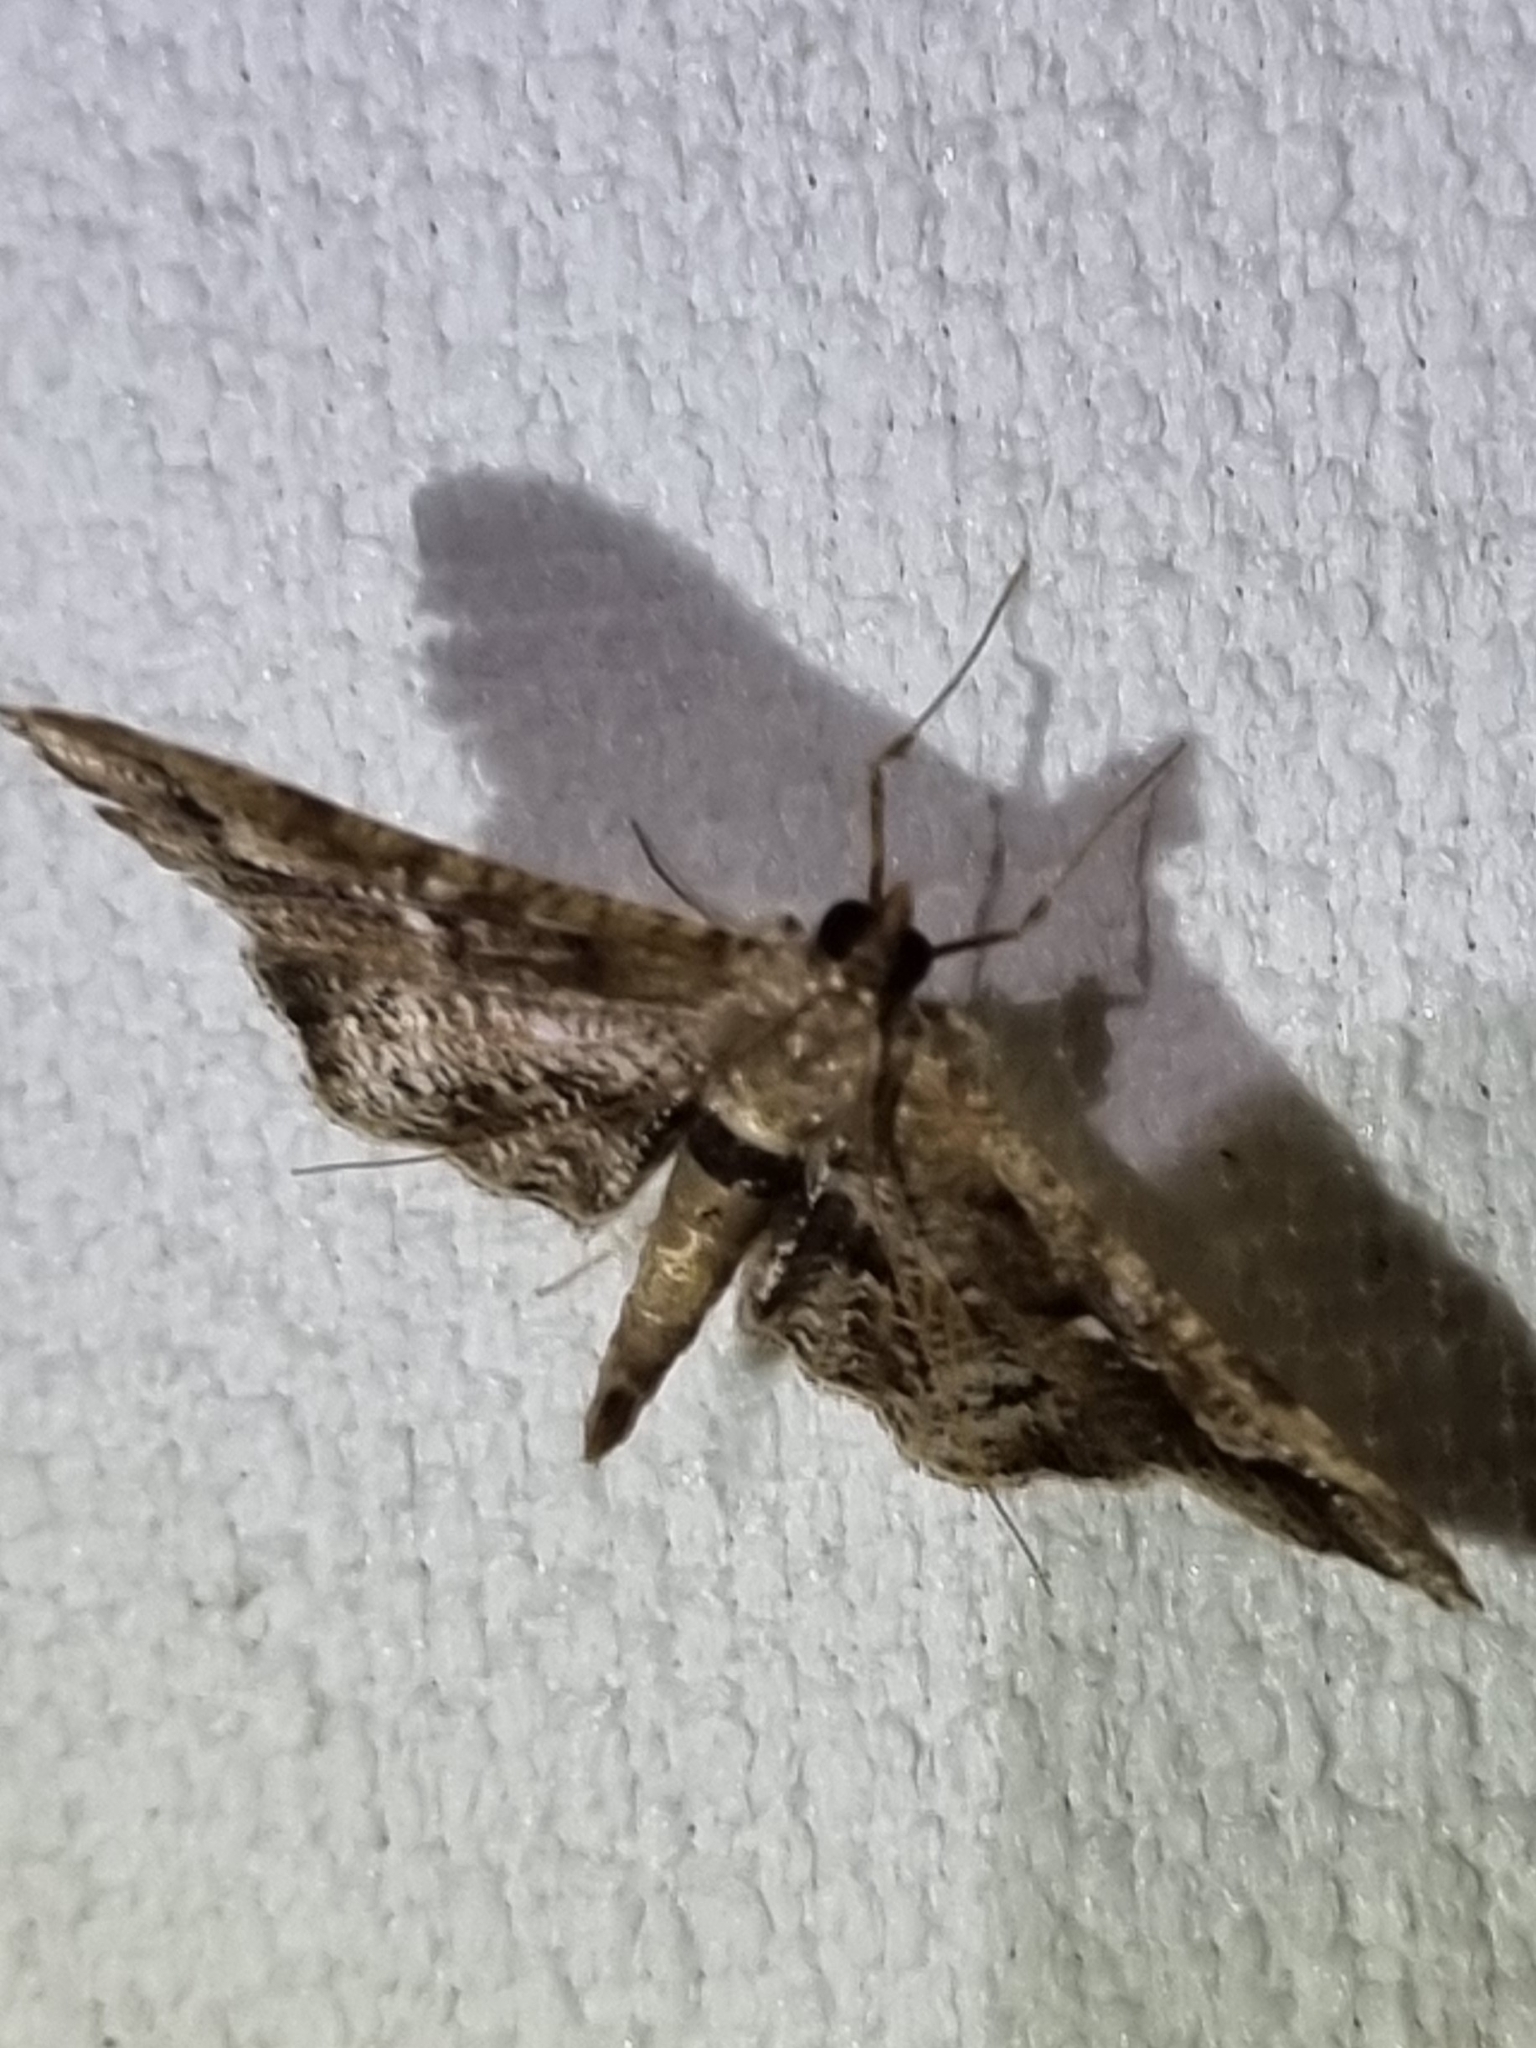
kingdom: Animalia
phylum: Arthropoda
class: Insecta
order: Lepidoptera
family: Crambidae
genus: Merodictya
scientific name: Merodictya marmorata
